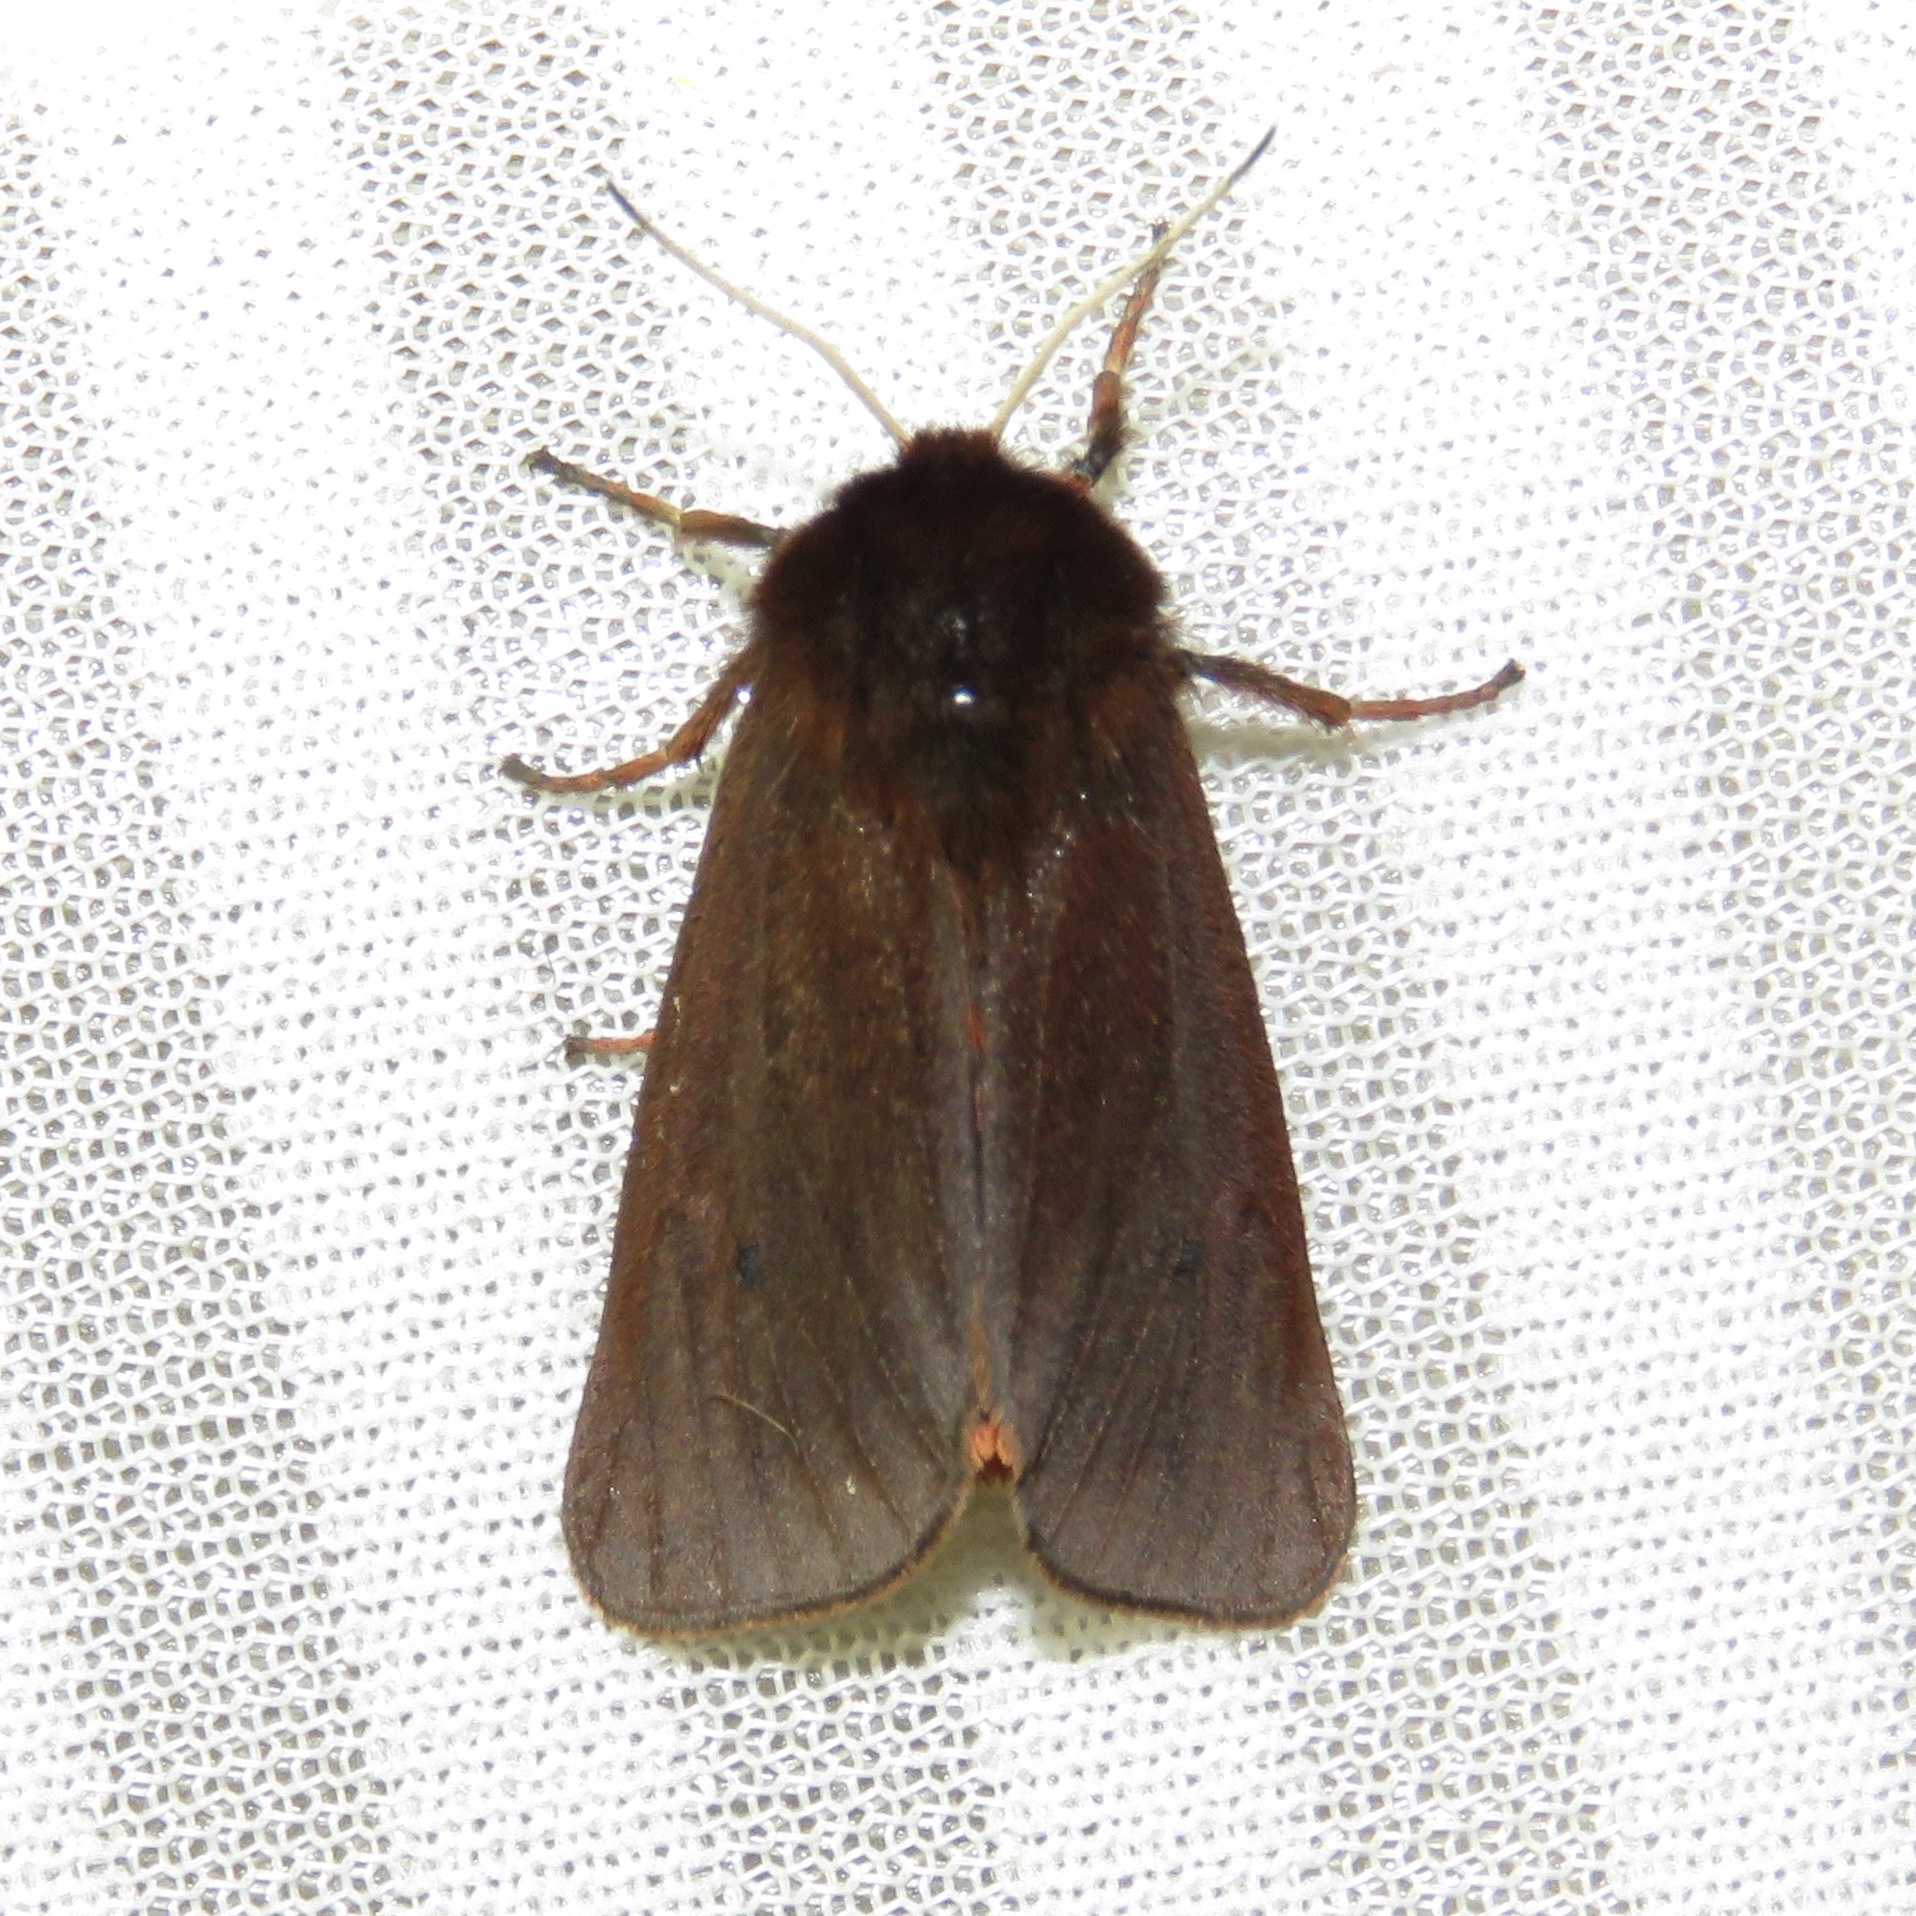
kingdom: Animalia
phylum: Arthropoda
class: Insecta
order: Lepidoptera
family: Erebidae
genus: Phragmatobia
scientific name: Phragmatobia fuliginosa
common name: Ruby tiger
